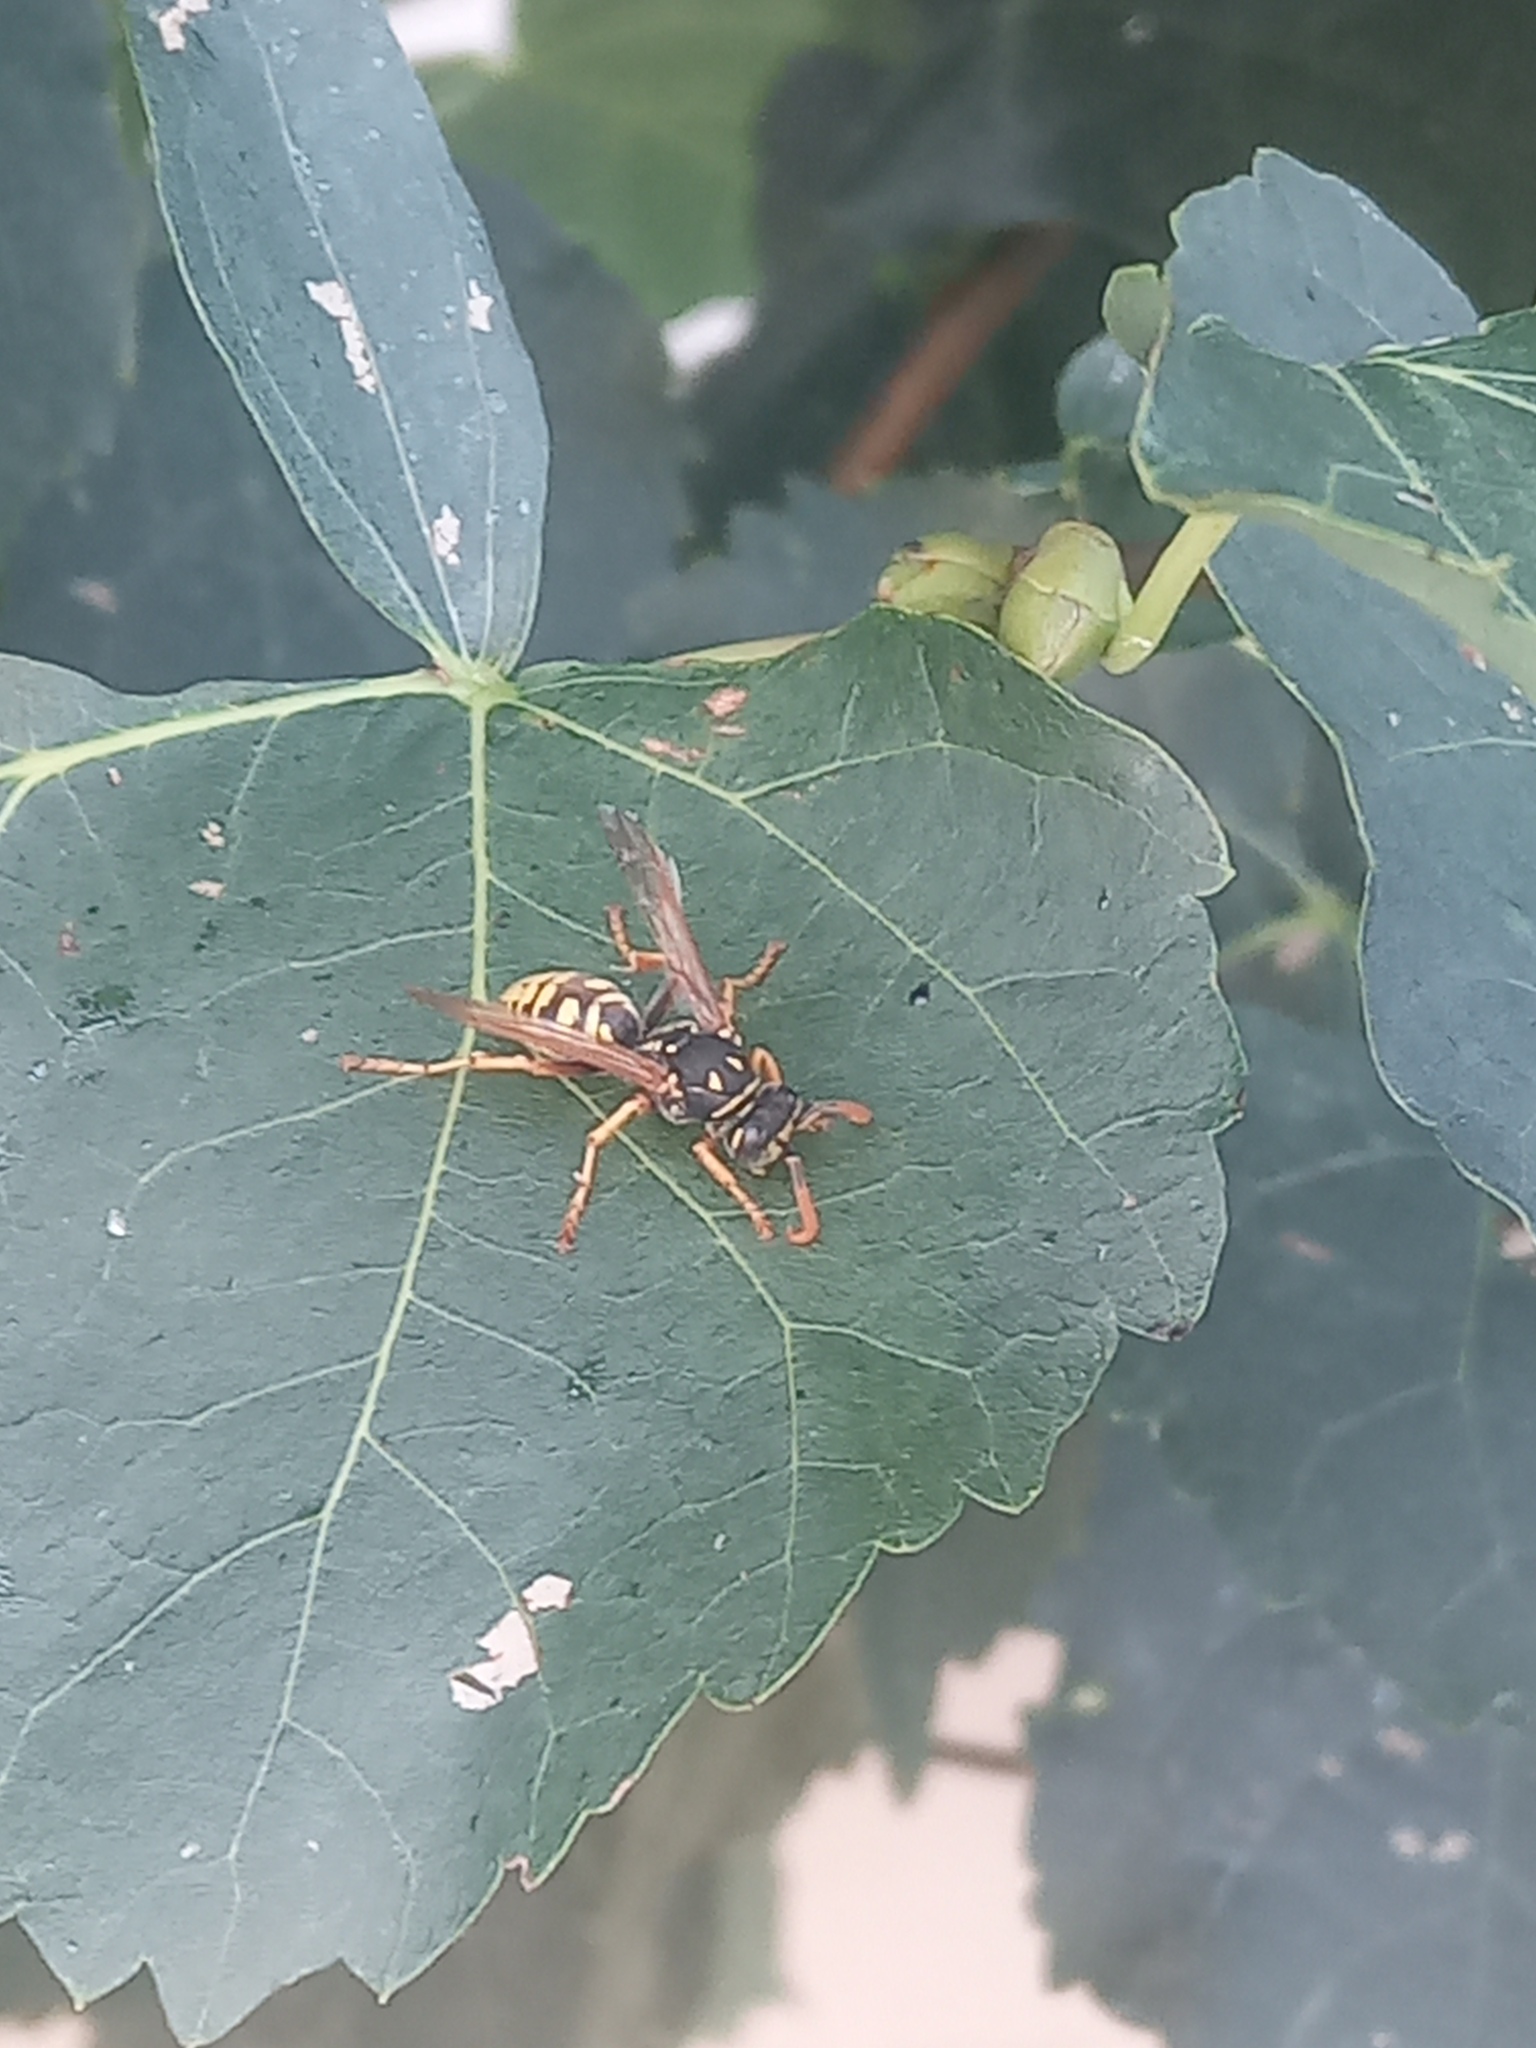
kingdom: Animalia
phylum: Arthropoda
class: Insecta
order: Hymenoptera
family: Eumenidae
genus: Polistes
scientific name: Polistes dominula
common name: Paper wasp
